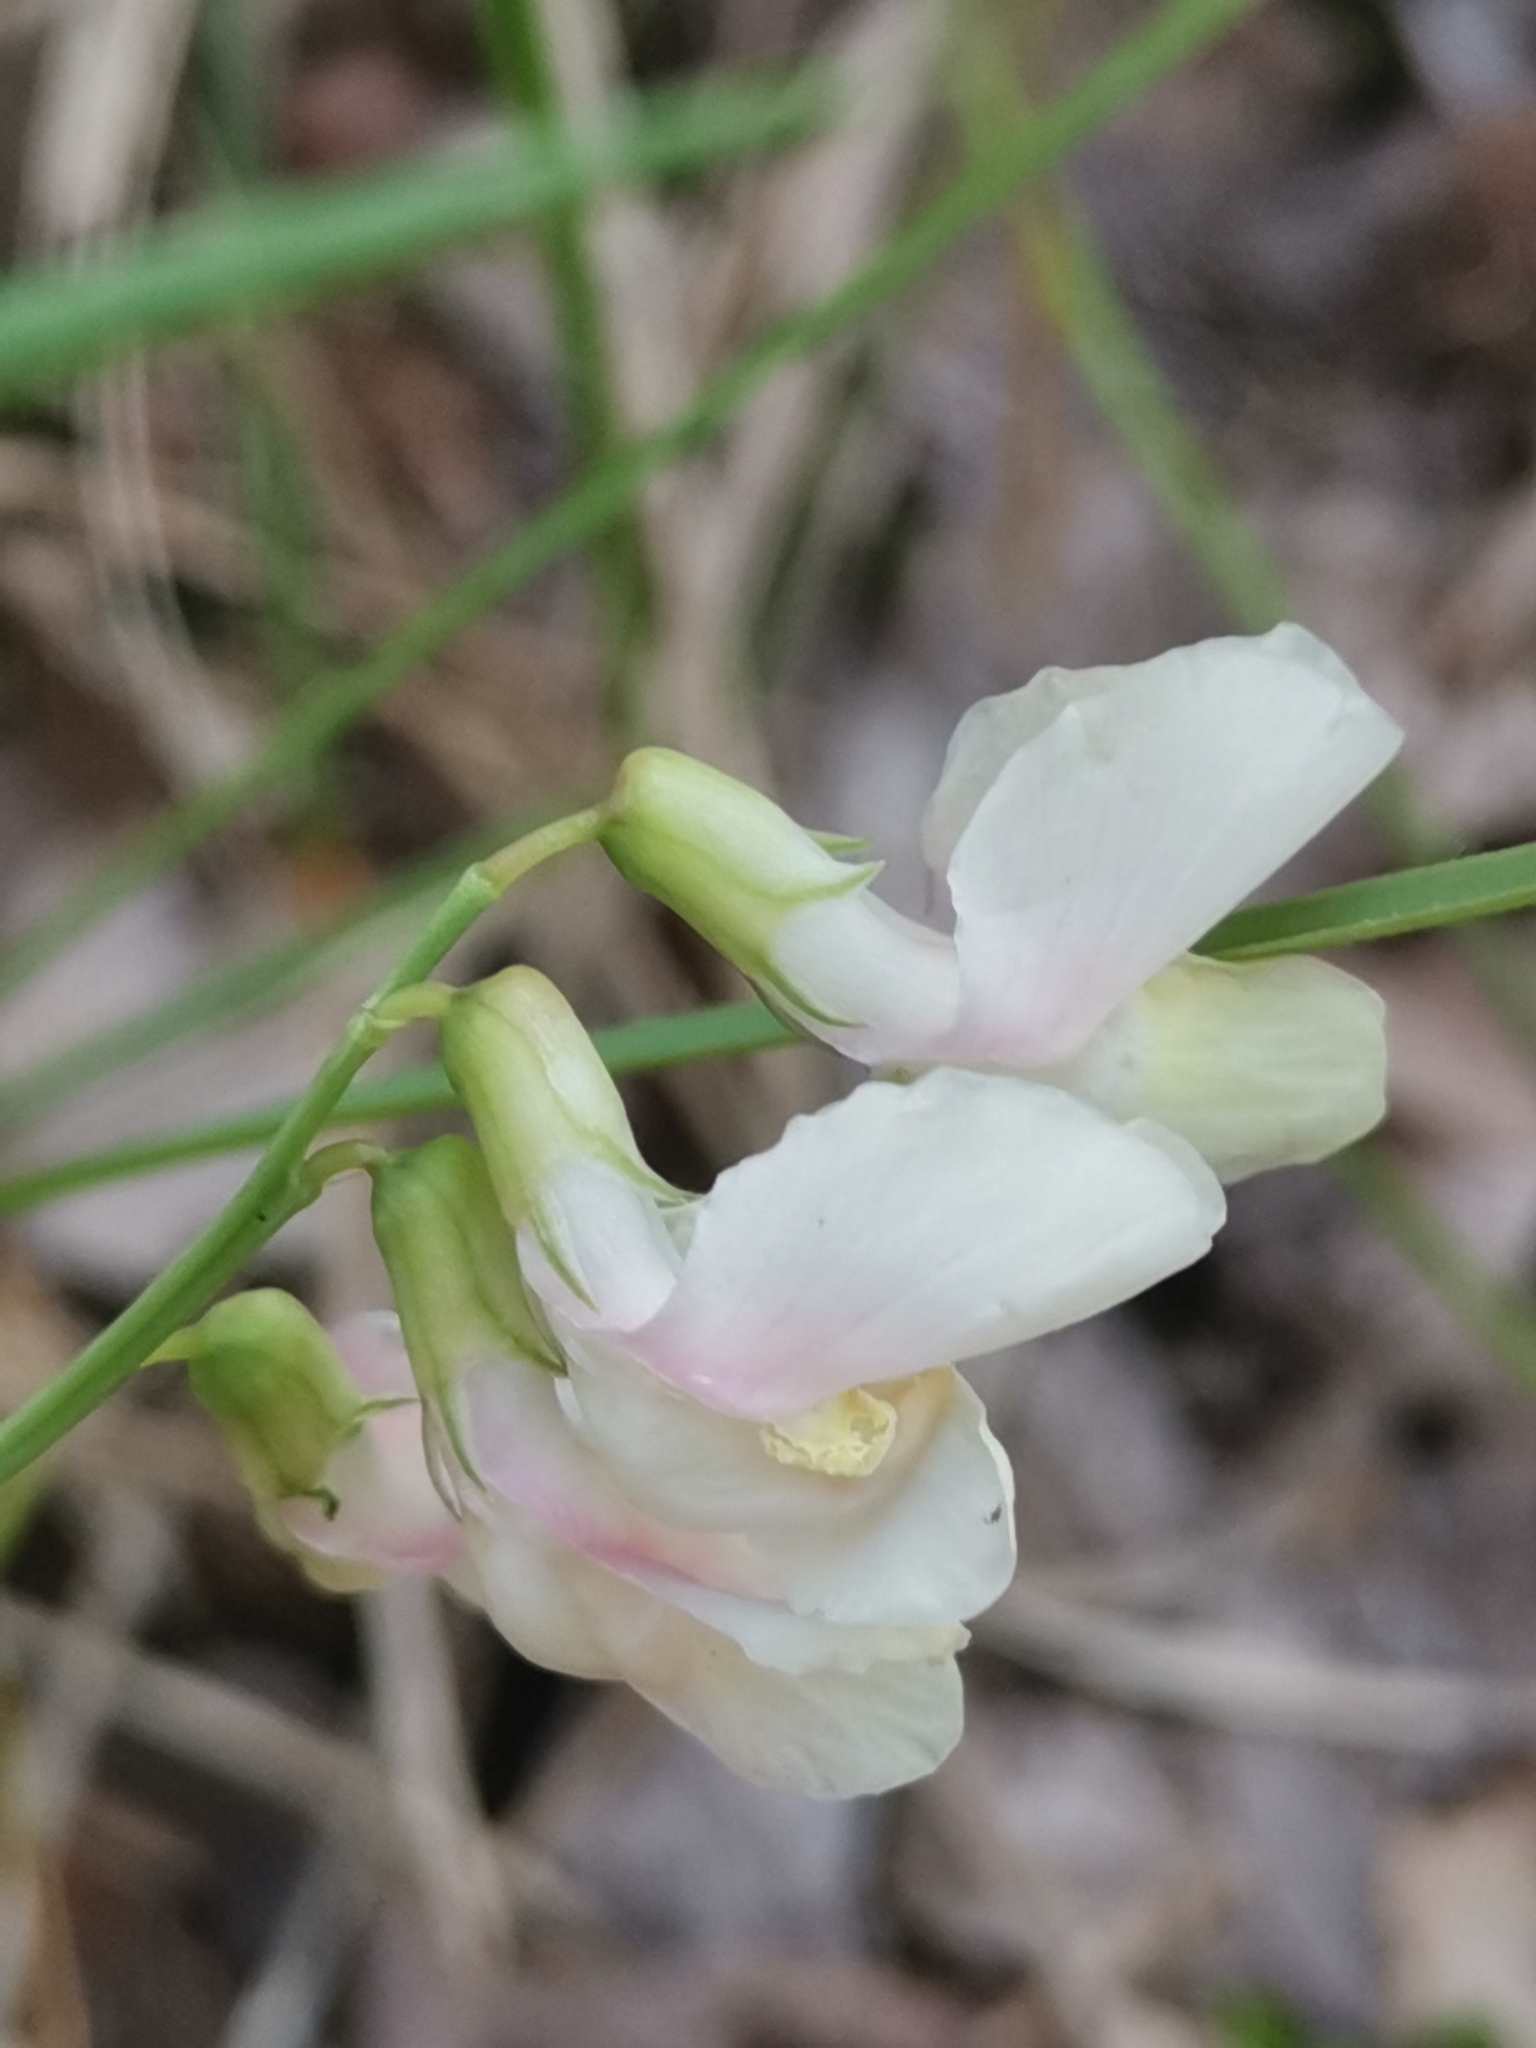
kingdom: Plantae
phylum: Tracheophyta
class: Magnoliopsida
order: Fabales
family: Fabaceae
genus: Lathyrus
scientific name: Lathyrus pannonicus
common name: Pea
